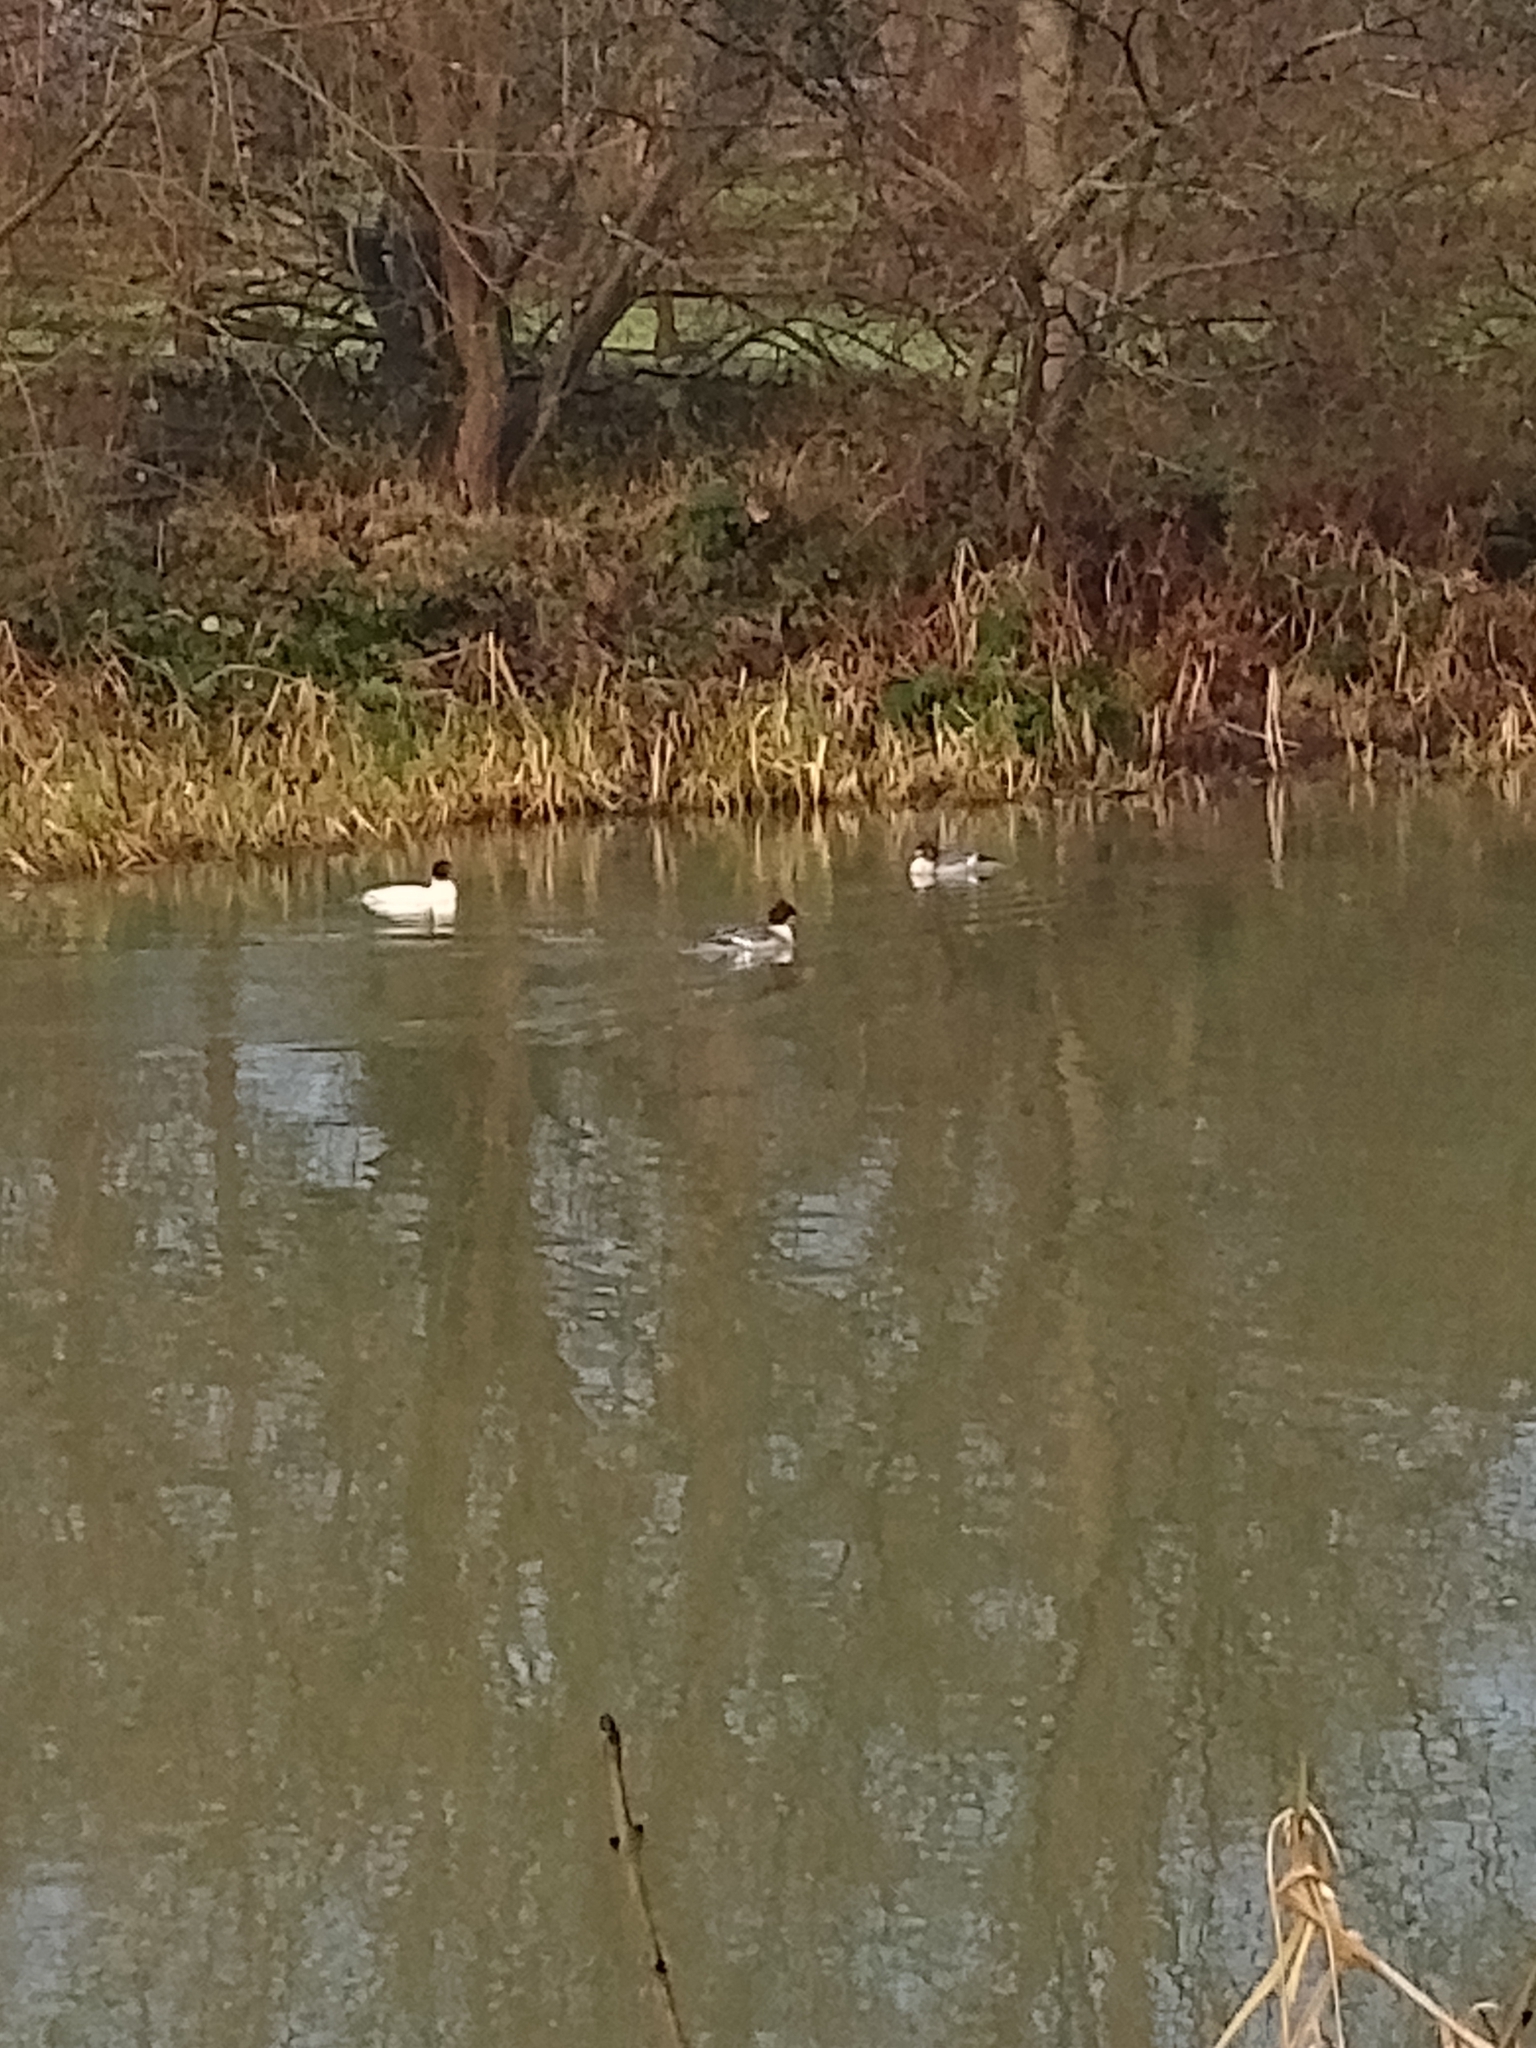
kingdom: Animalia
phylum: Chordata
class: Aves
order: Anseriformes
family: Anatidae
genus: Mergus
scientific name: Mergus merganser
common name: Common merganser
